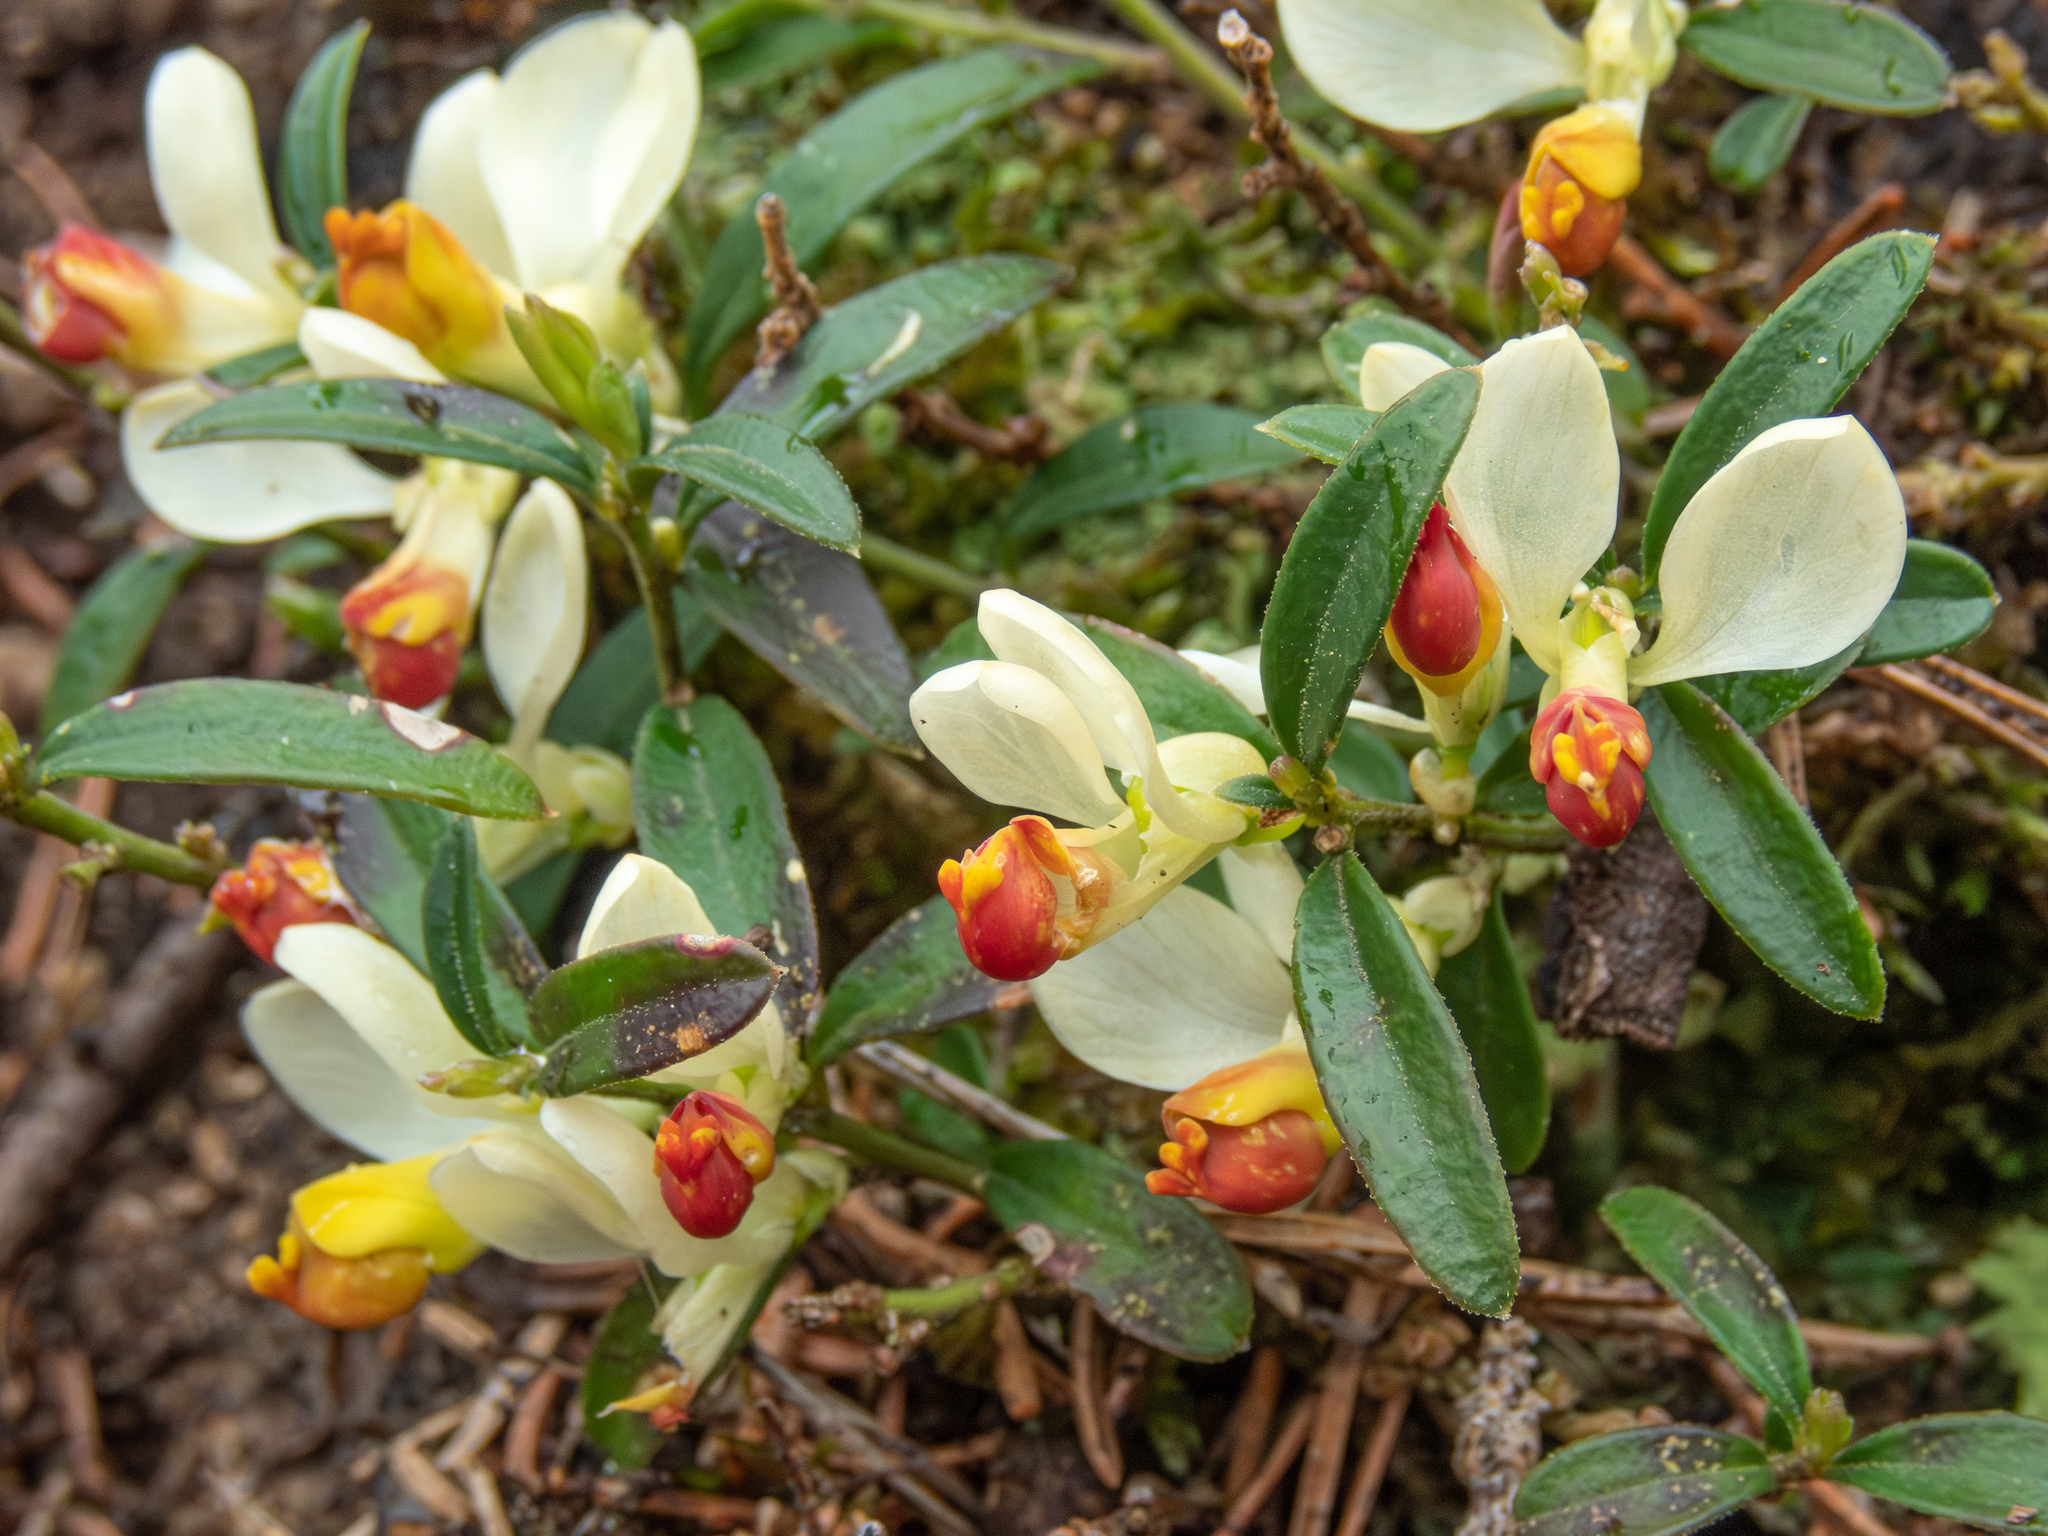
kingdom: Plantae
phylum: Tracheophyta
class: Magnoliopsida
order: Fabales
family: Polygalaceae
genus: Polygaloides
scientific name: Polygaloides chamaebuxus
